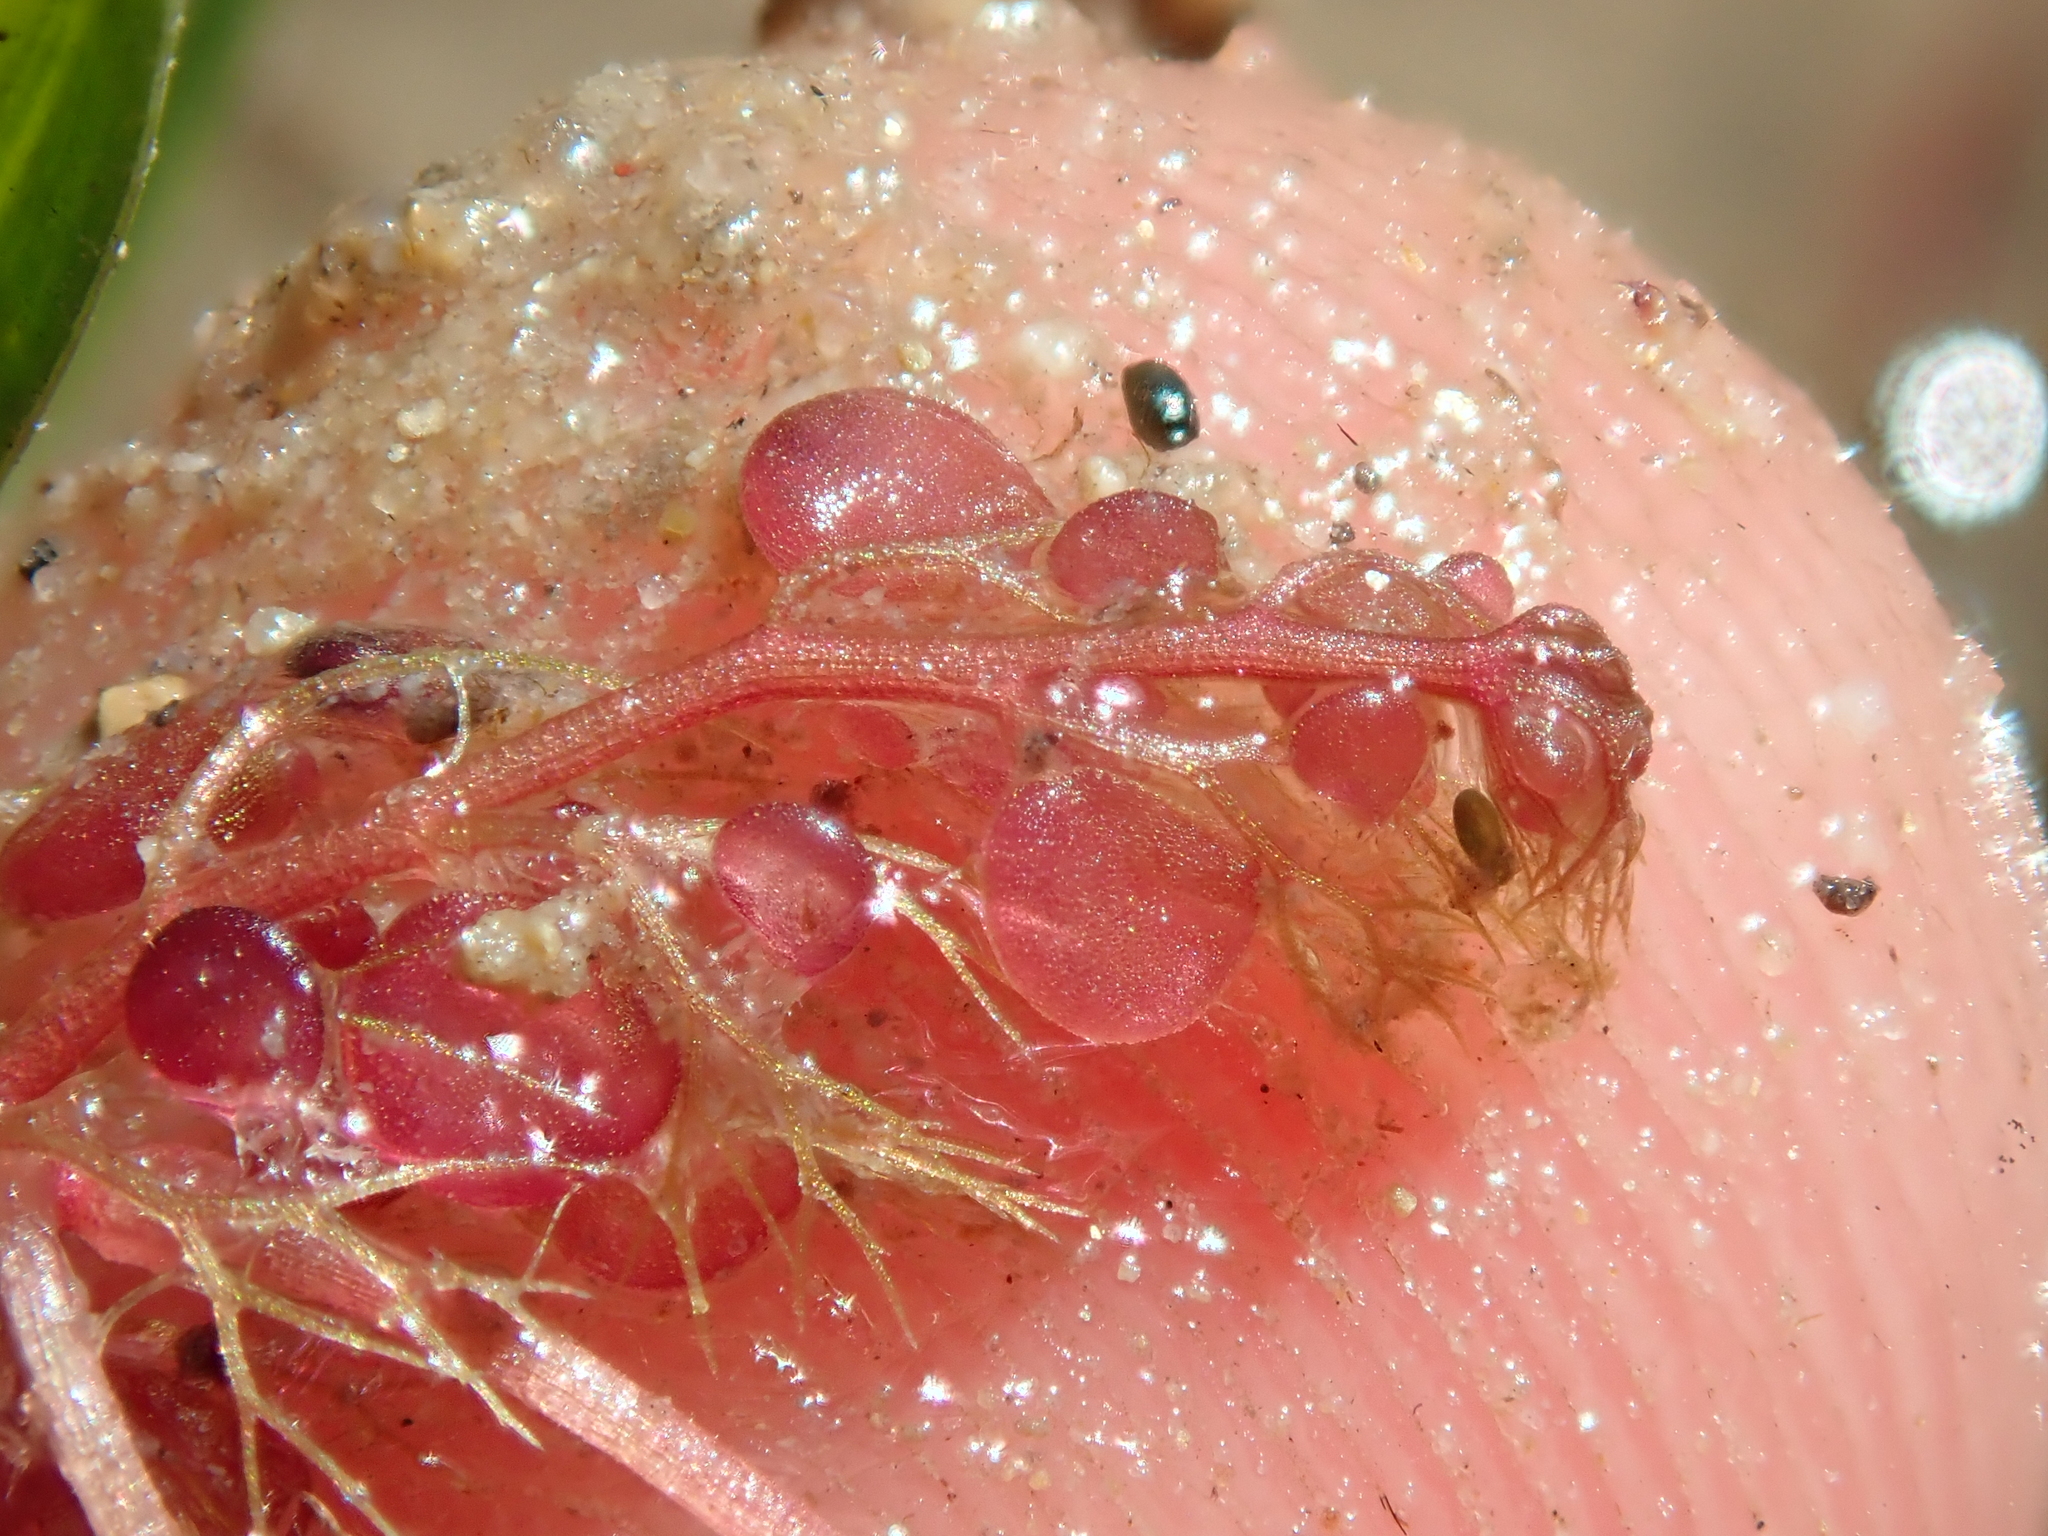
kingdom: Plantae
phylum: Tracheophyta
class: Magnoliopsida
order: Lamiales
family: Lentibulariaceae
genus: Utricularia
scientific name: Utricularia hydrocarpa
